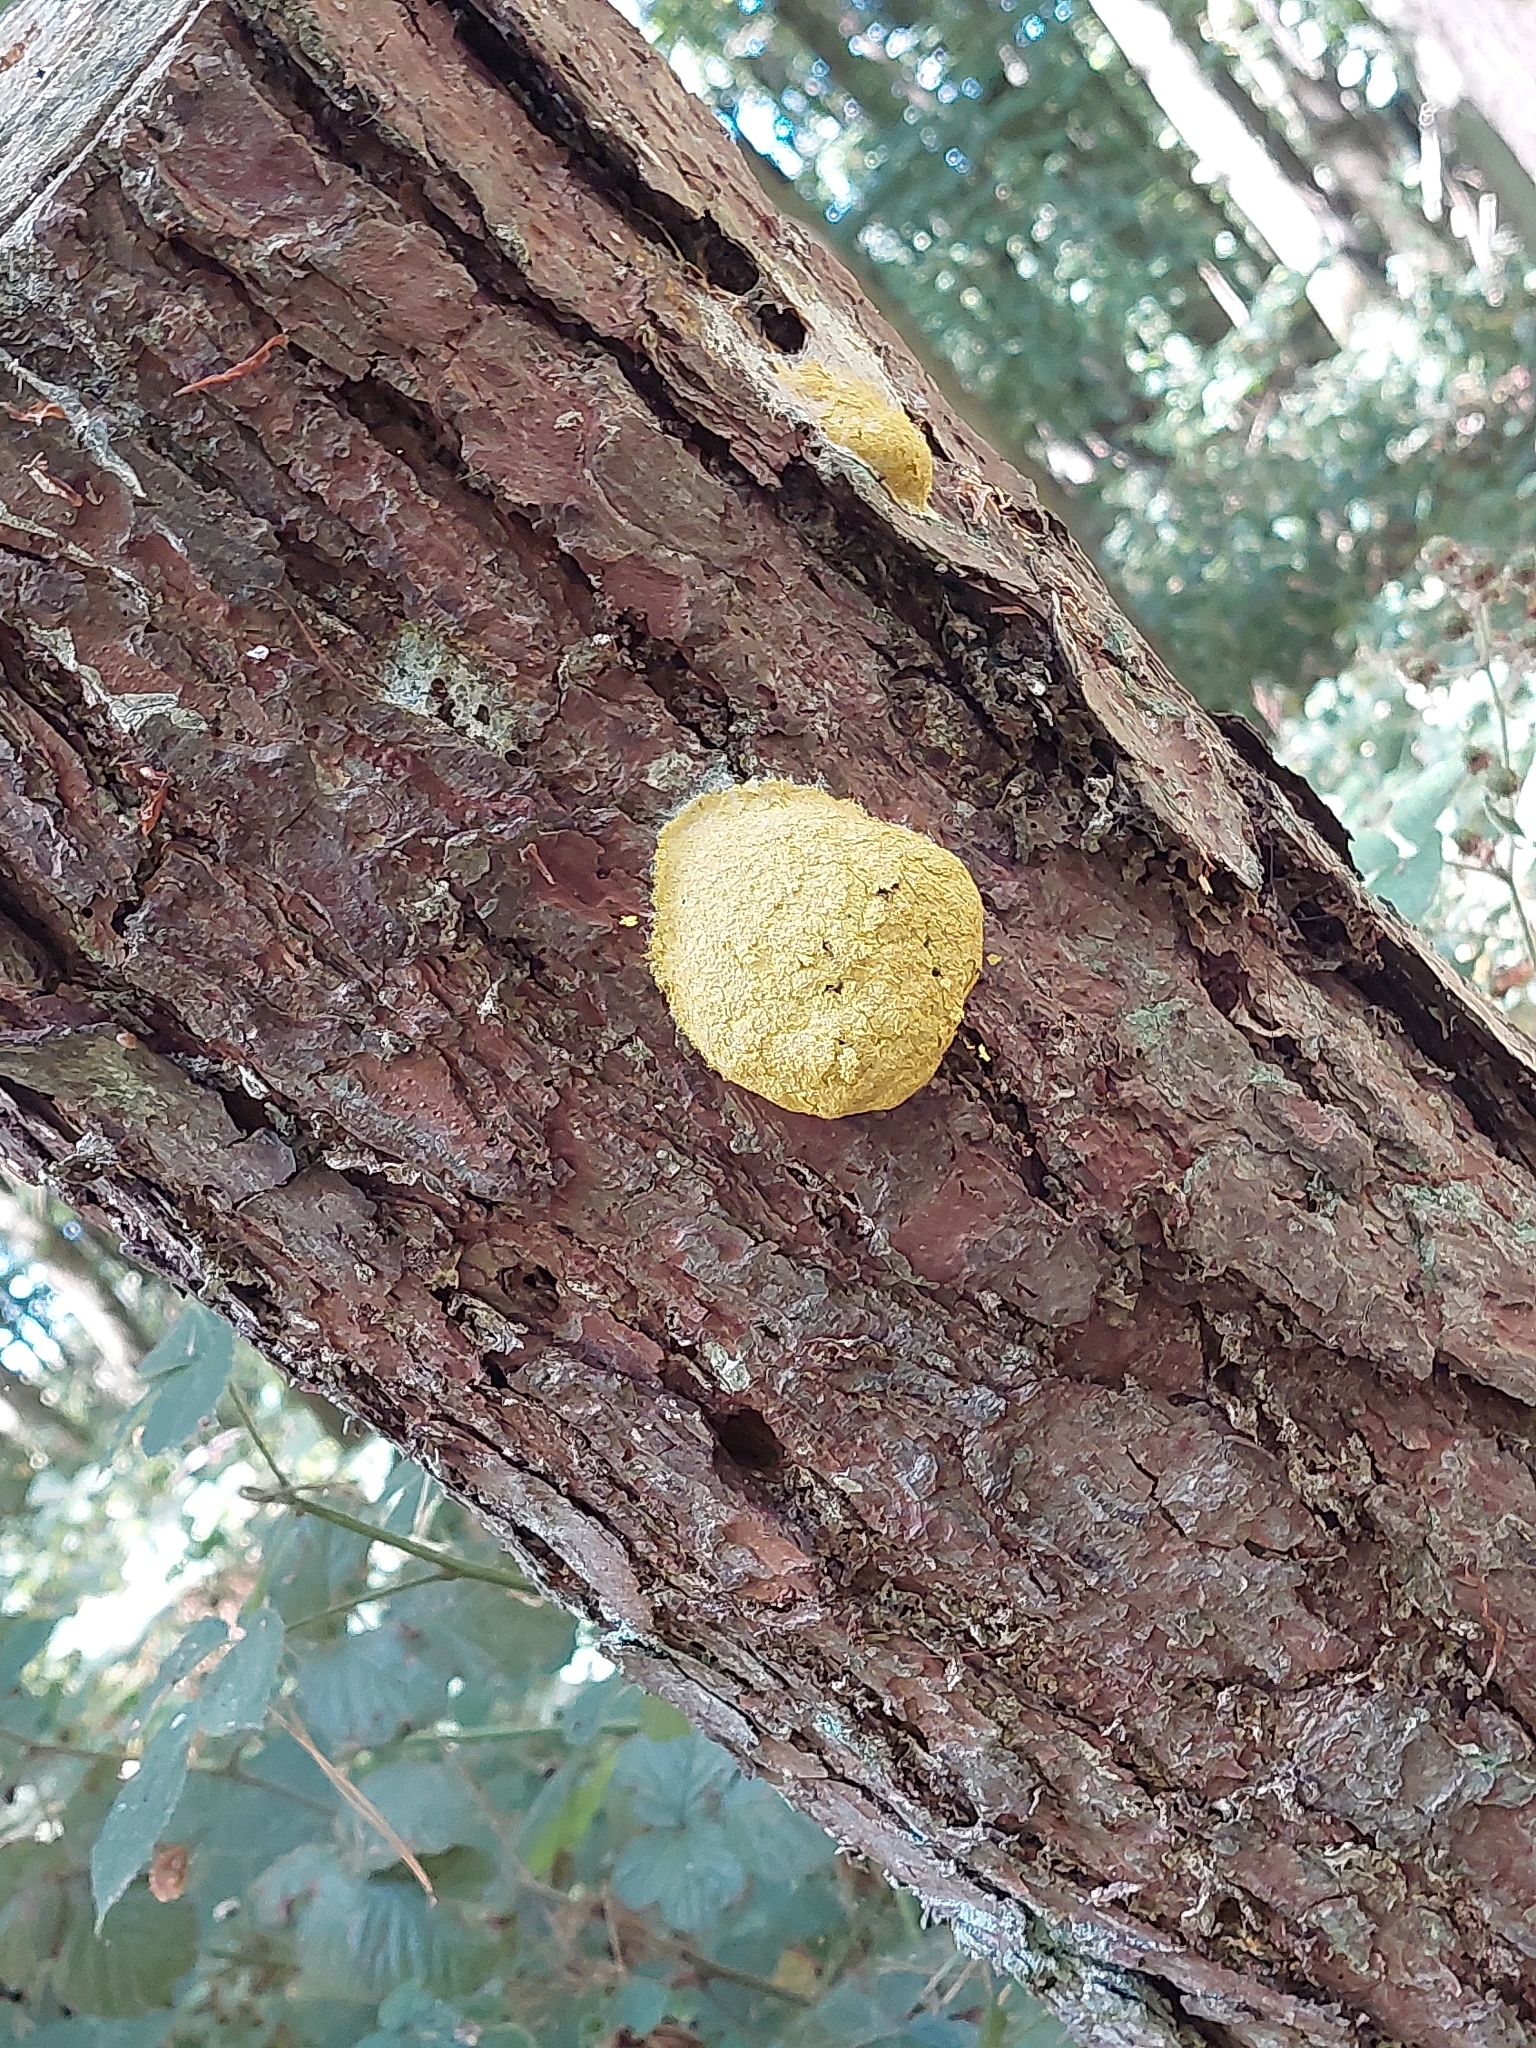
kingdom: Protozoa
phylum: Mycetozoa
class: Myxomycetes
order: Physarales
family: Physaraceae
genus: Fuligo
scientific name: Fuligo septica
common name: Dog vomit slime mold
